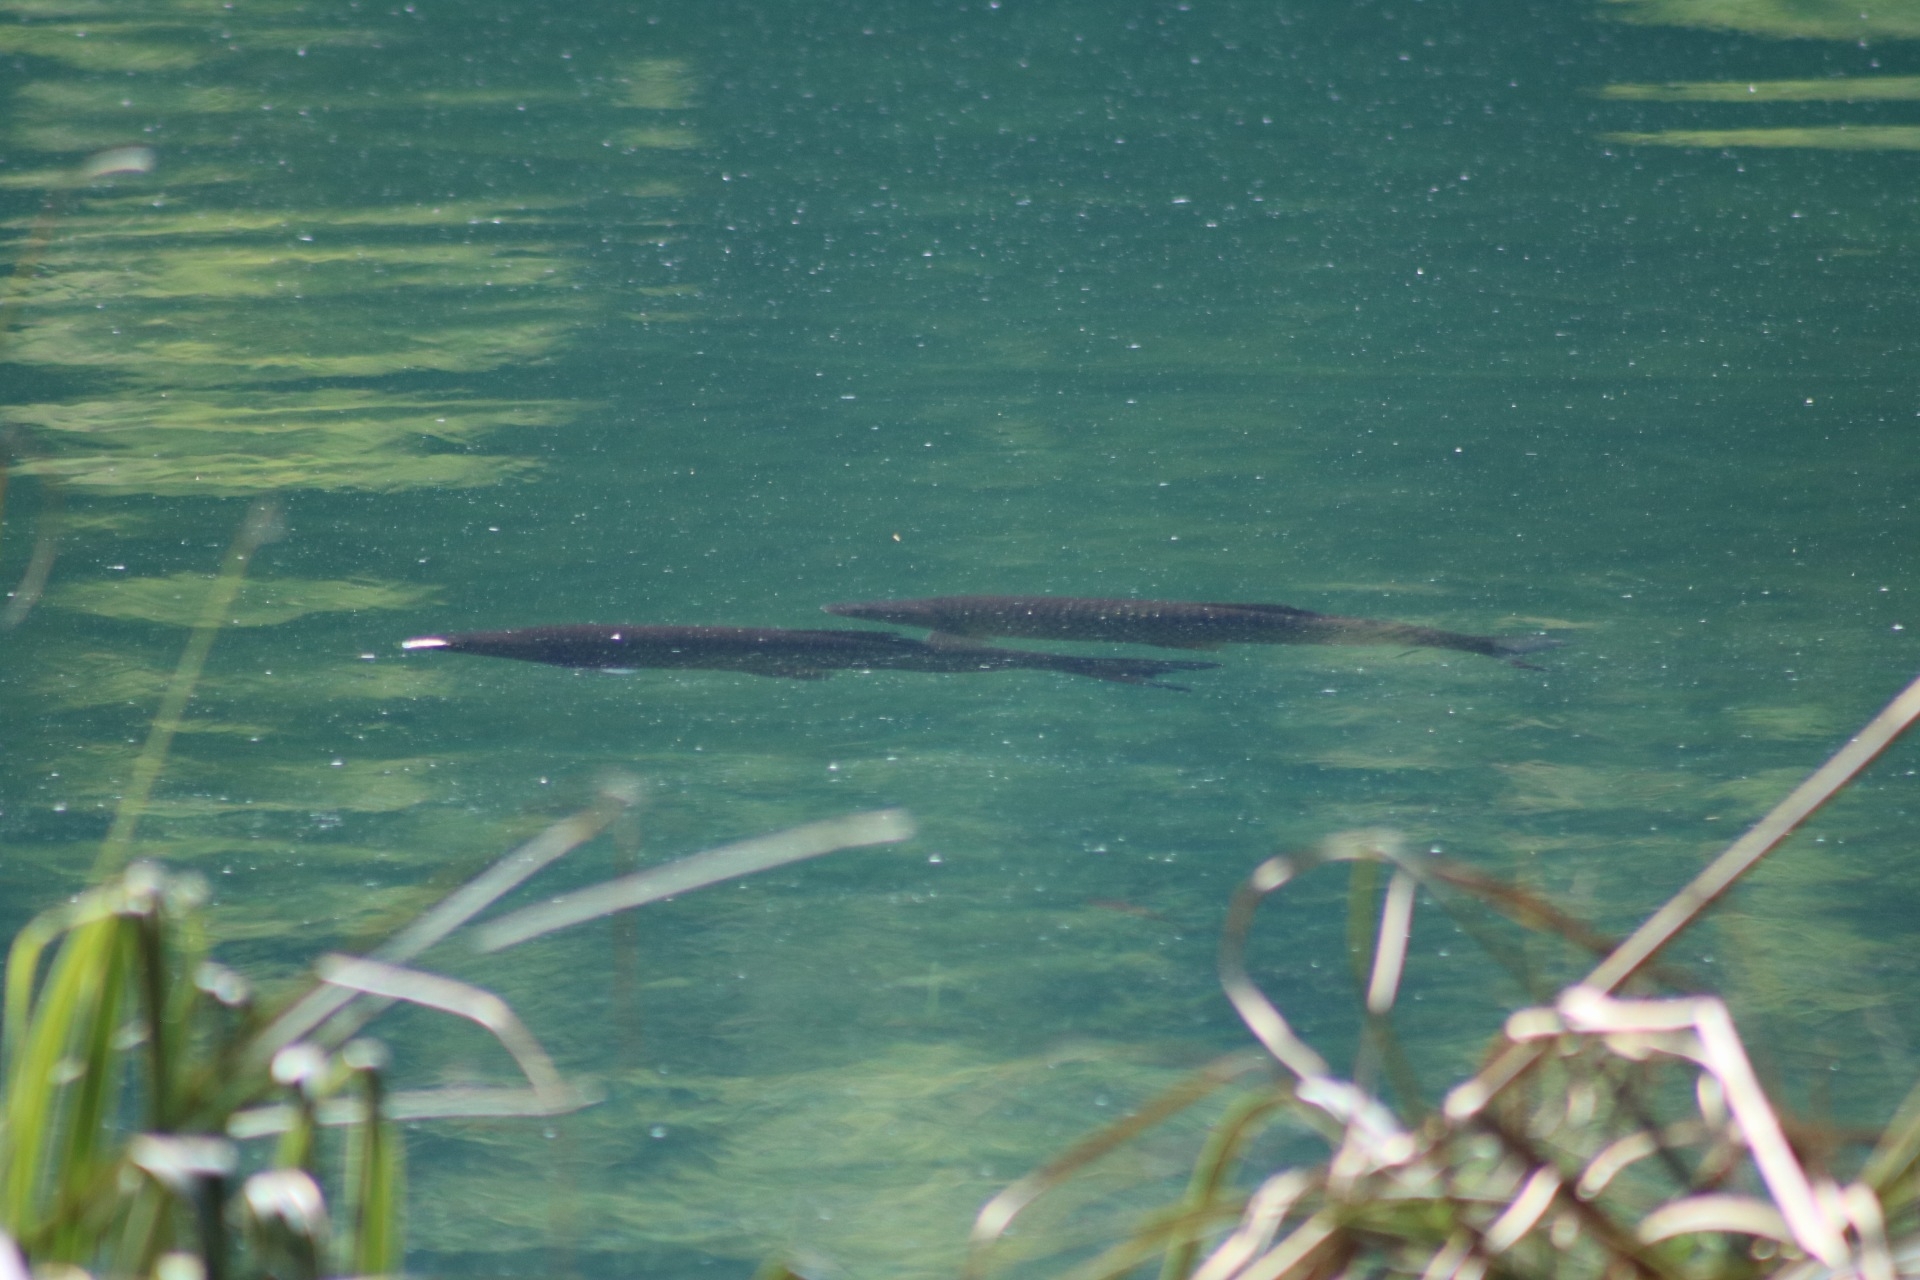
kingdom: Animalia
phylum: Chordata
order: Cypriniformes
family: Cyprinidae
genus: Squalius
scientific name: Squalius cephalus
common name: Chub
